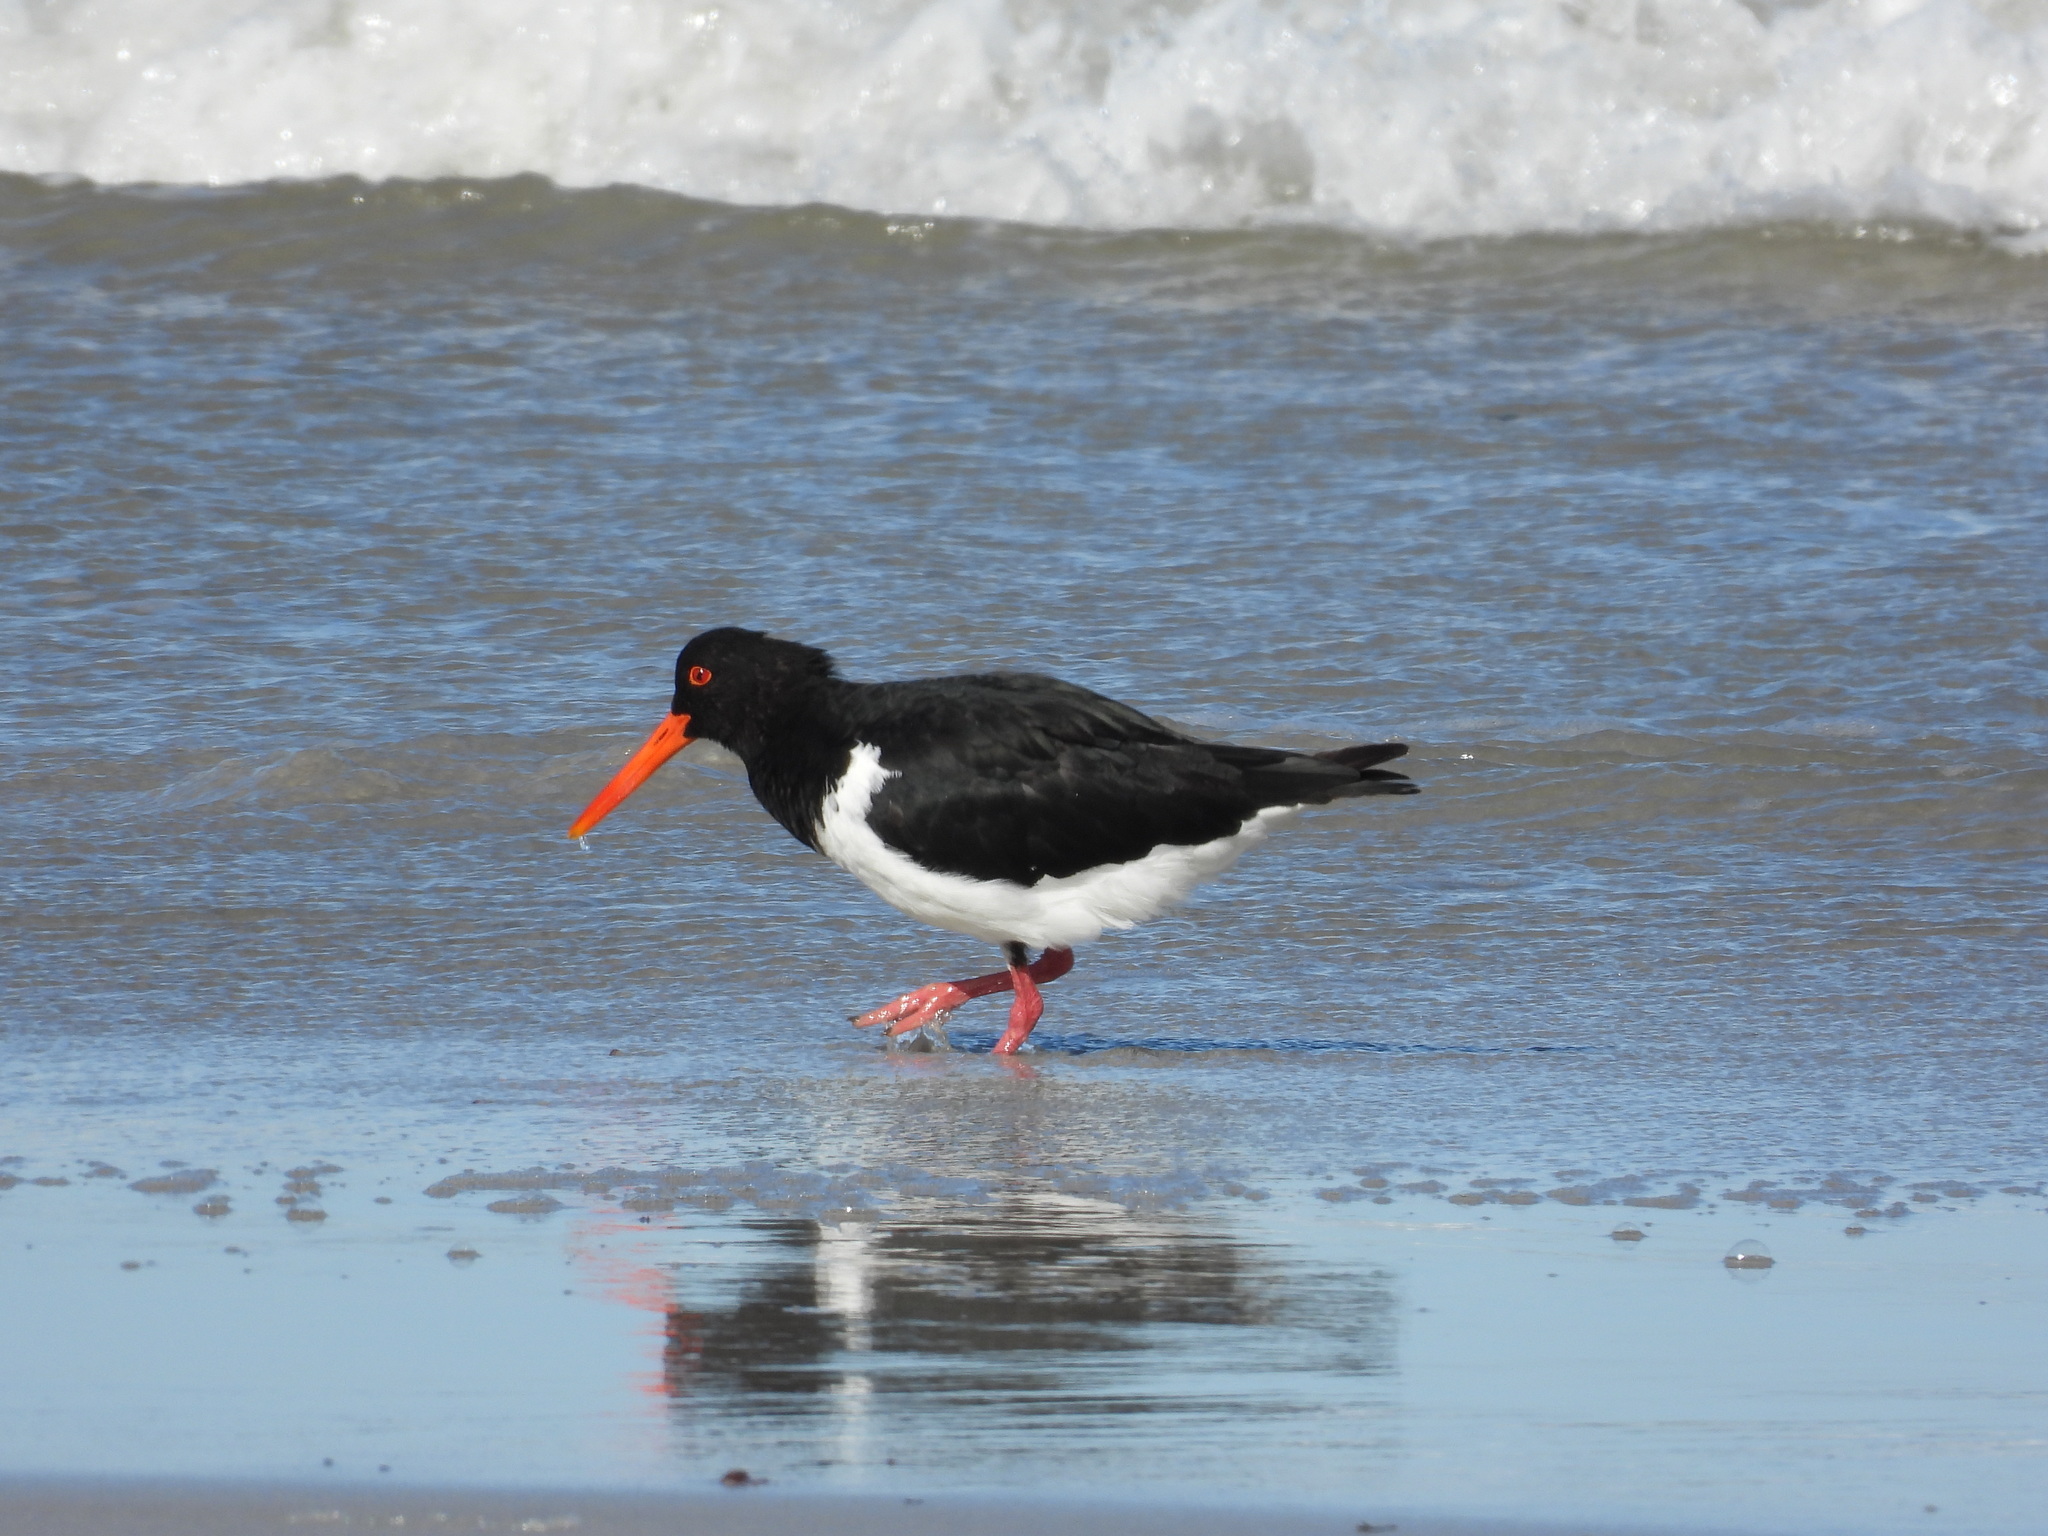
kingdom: Animalia
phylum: Chordata
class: Aves
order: Charadriiformes
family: Haematopodidae
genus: Haematopus
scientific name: Haematopus longirostris
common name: Pied oystercatcher
